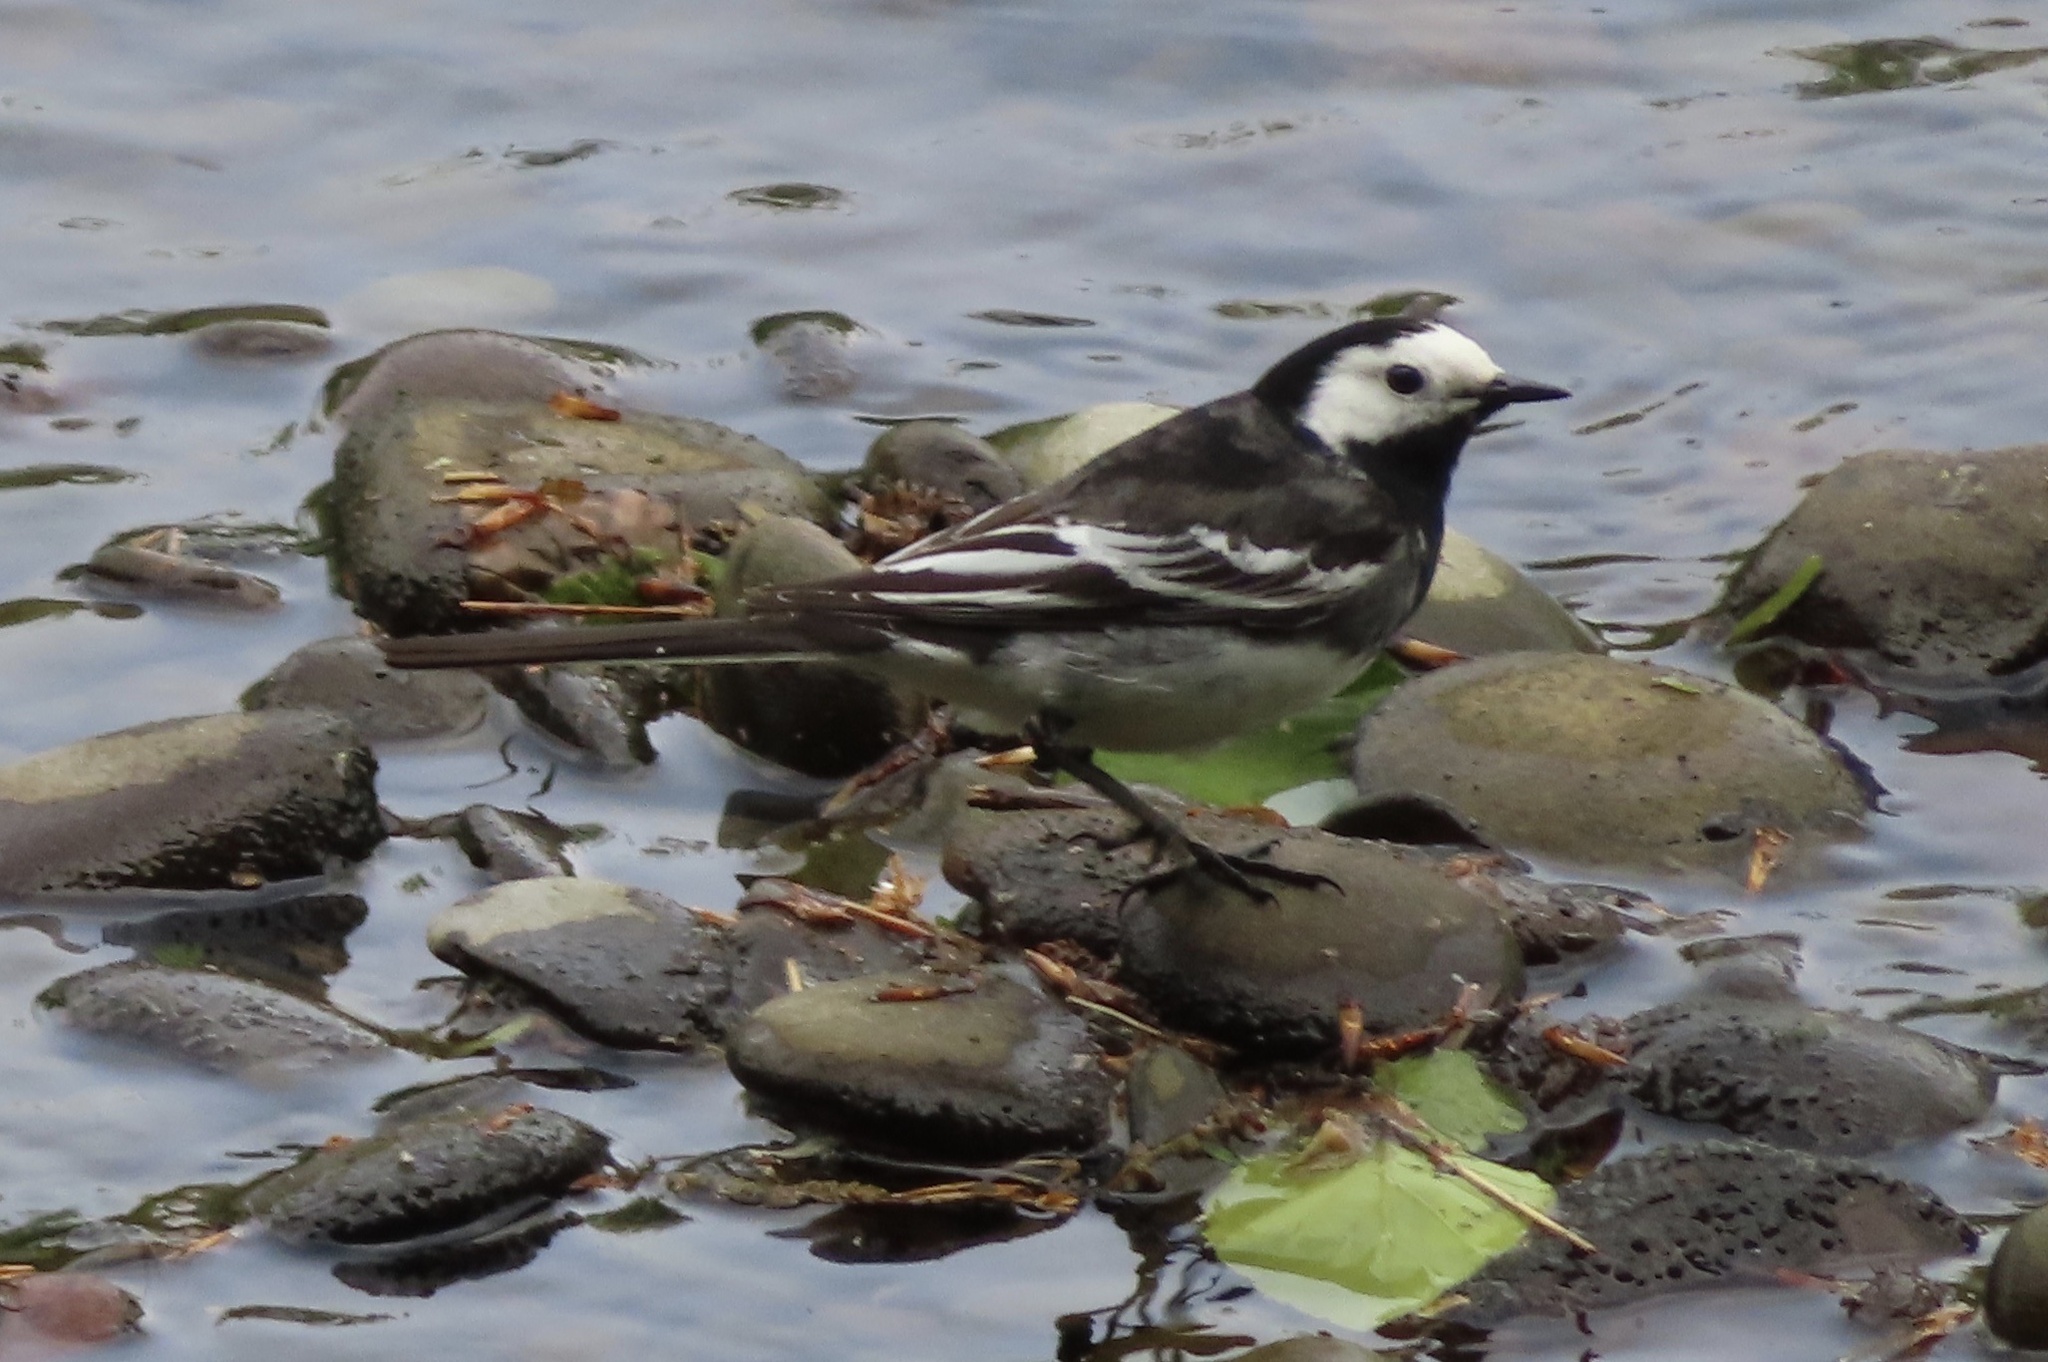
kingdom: Animalia
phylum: Chordata
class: Aves
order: Passeriformes
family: Motacillidae
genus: Motacilla
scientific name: Motacilla alba
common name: White wagtail
